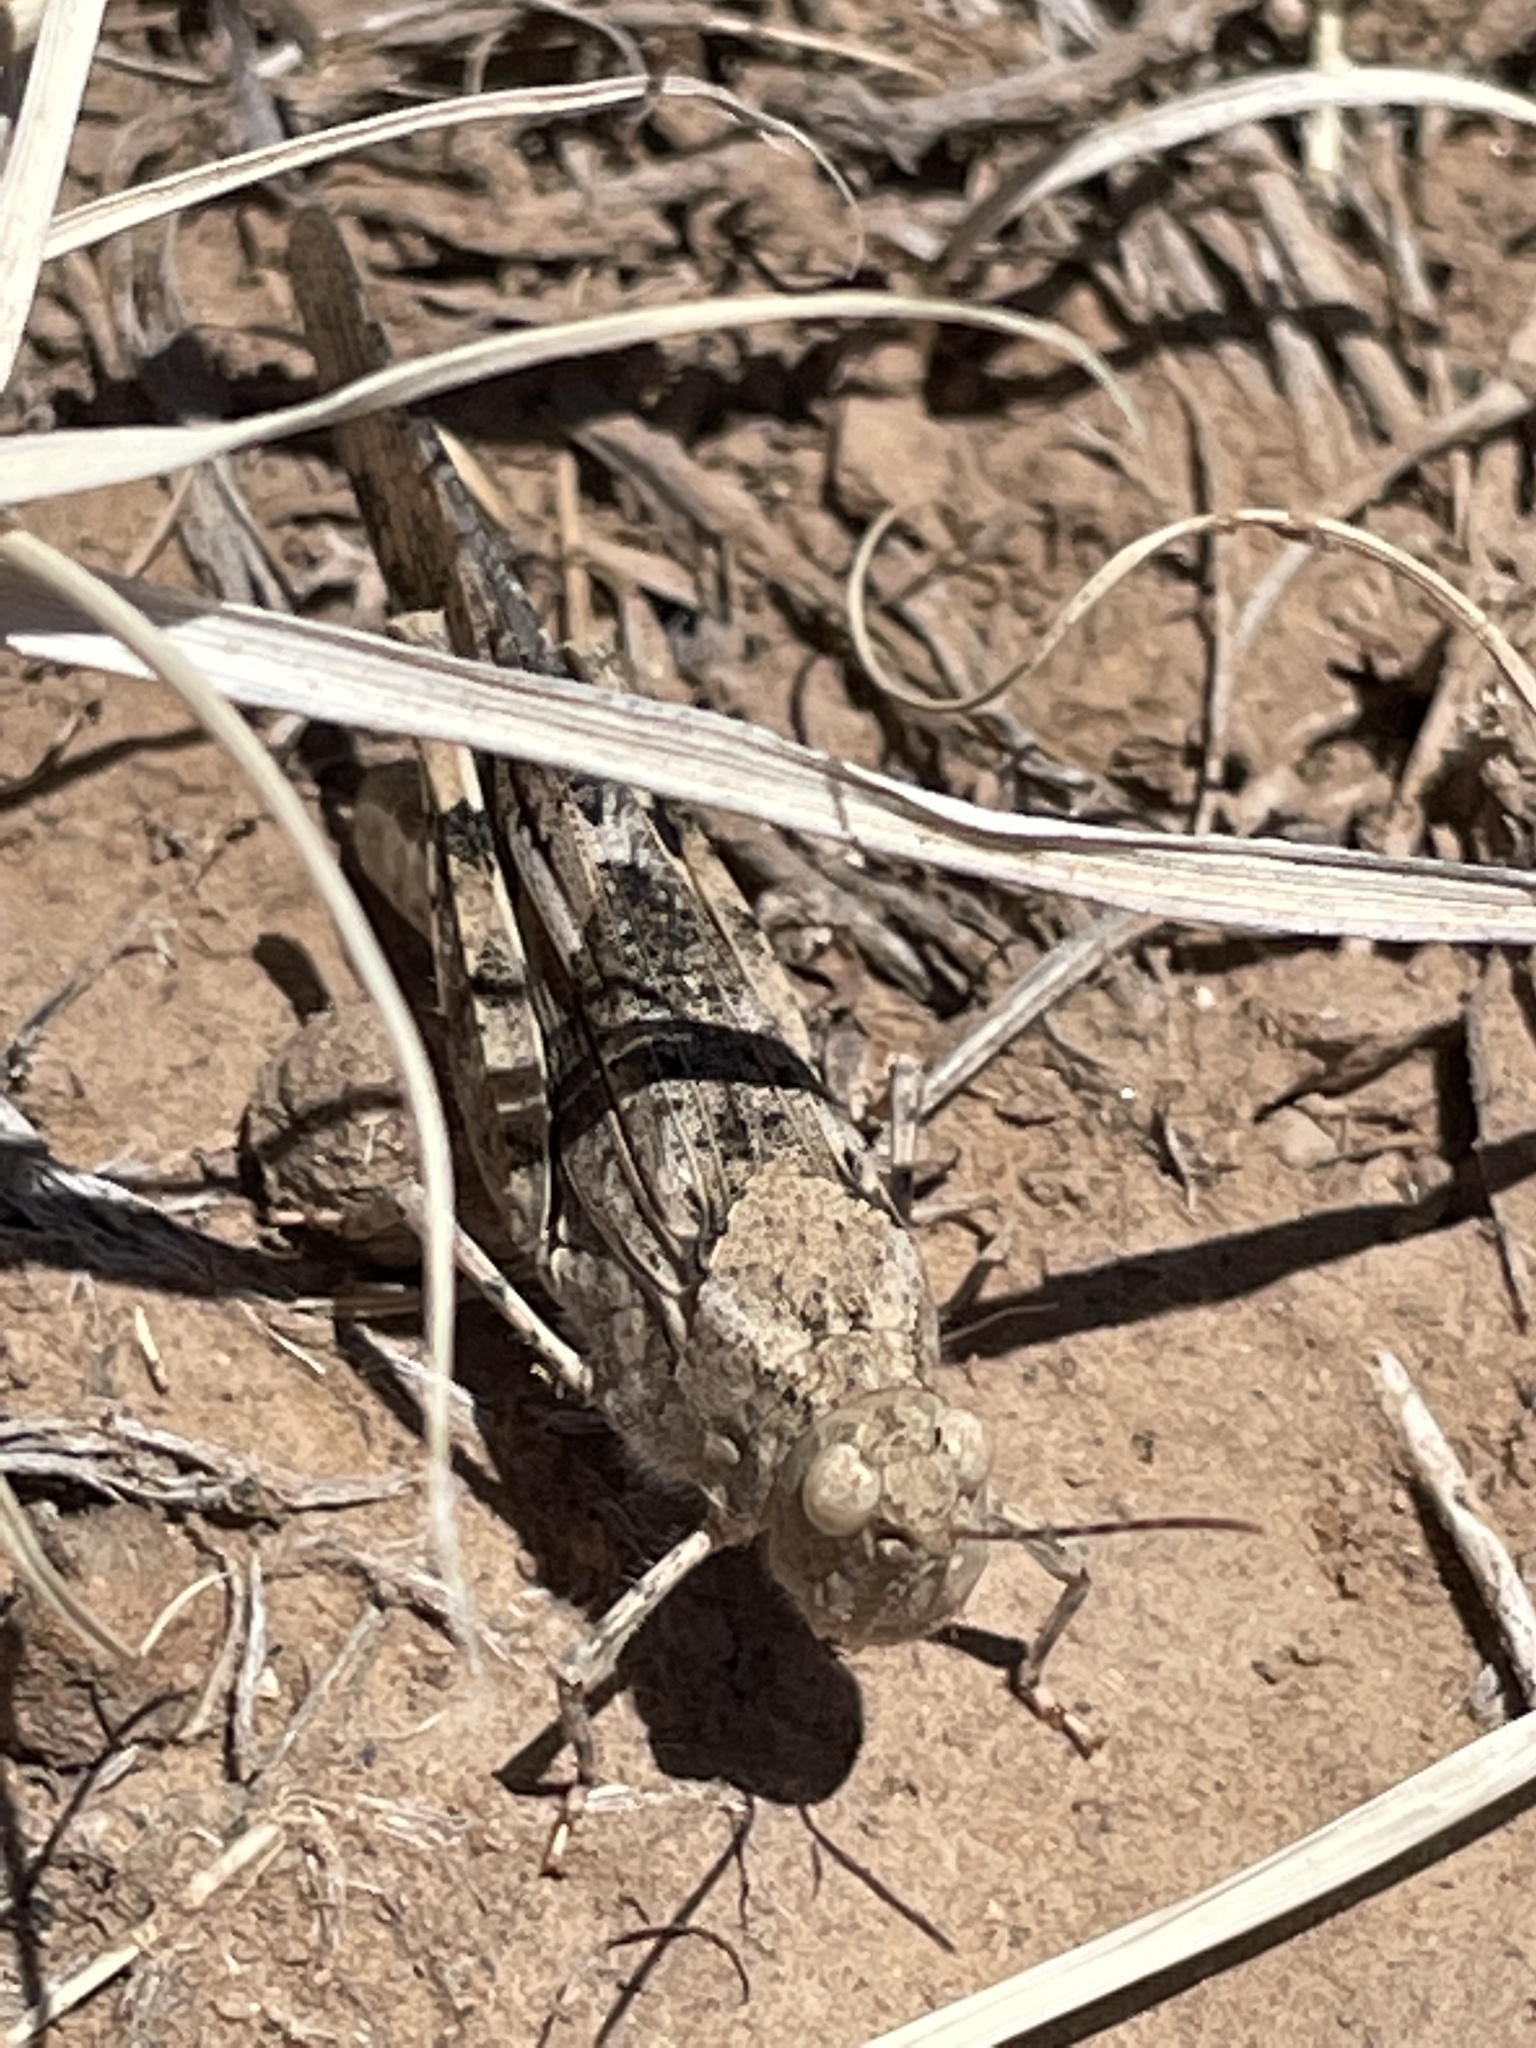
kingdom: Animalia
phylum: Arthropoda
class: Insecta
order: Orthoptera
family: Acrididae
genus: Trimerotropis
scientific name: Trimerotropis pallidipennis
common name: Pallid-winged grasshopper
